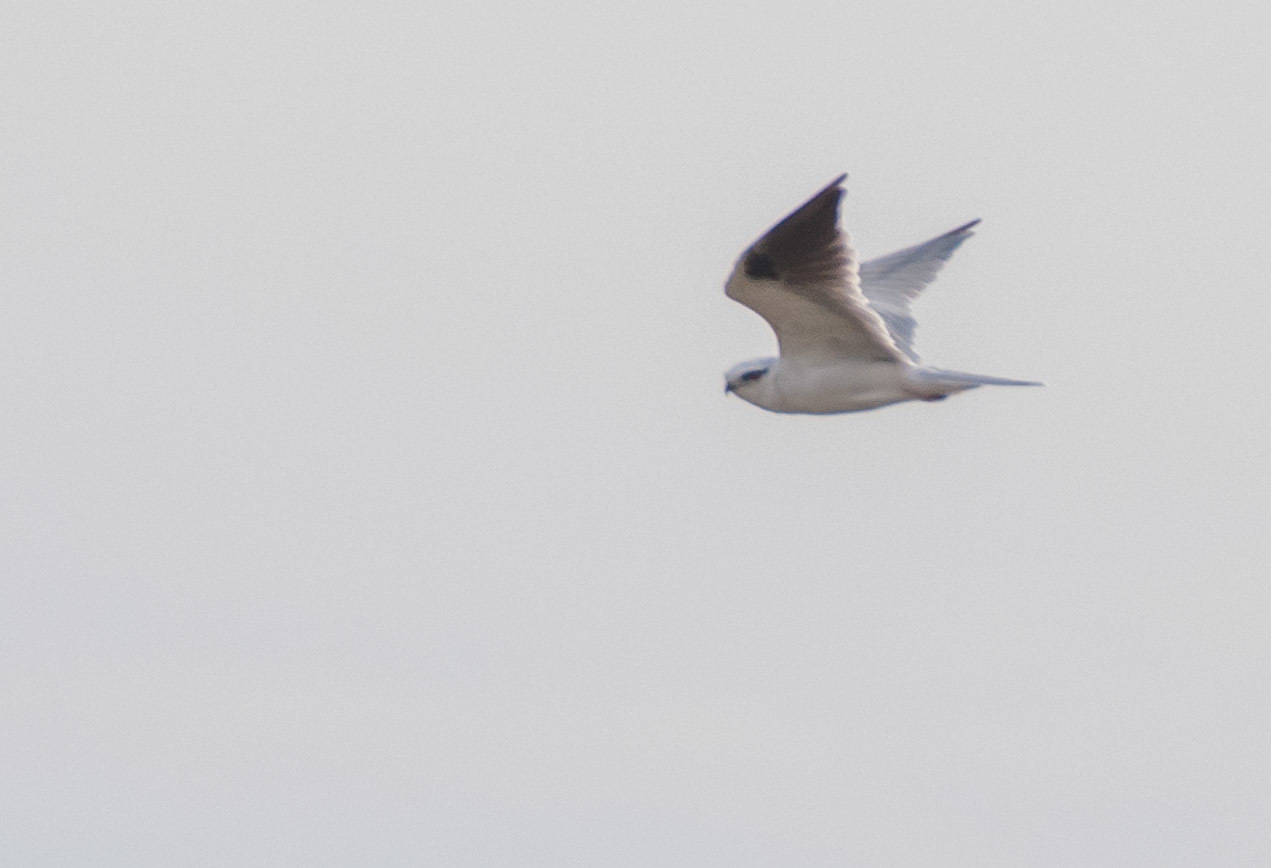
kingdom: Animalia
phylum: Chordata
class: Aves
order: Accipitriformes
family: Accipitridae
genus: Elanus
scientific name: Elanus axillaris
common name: Black-shouldered kite
